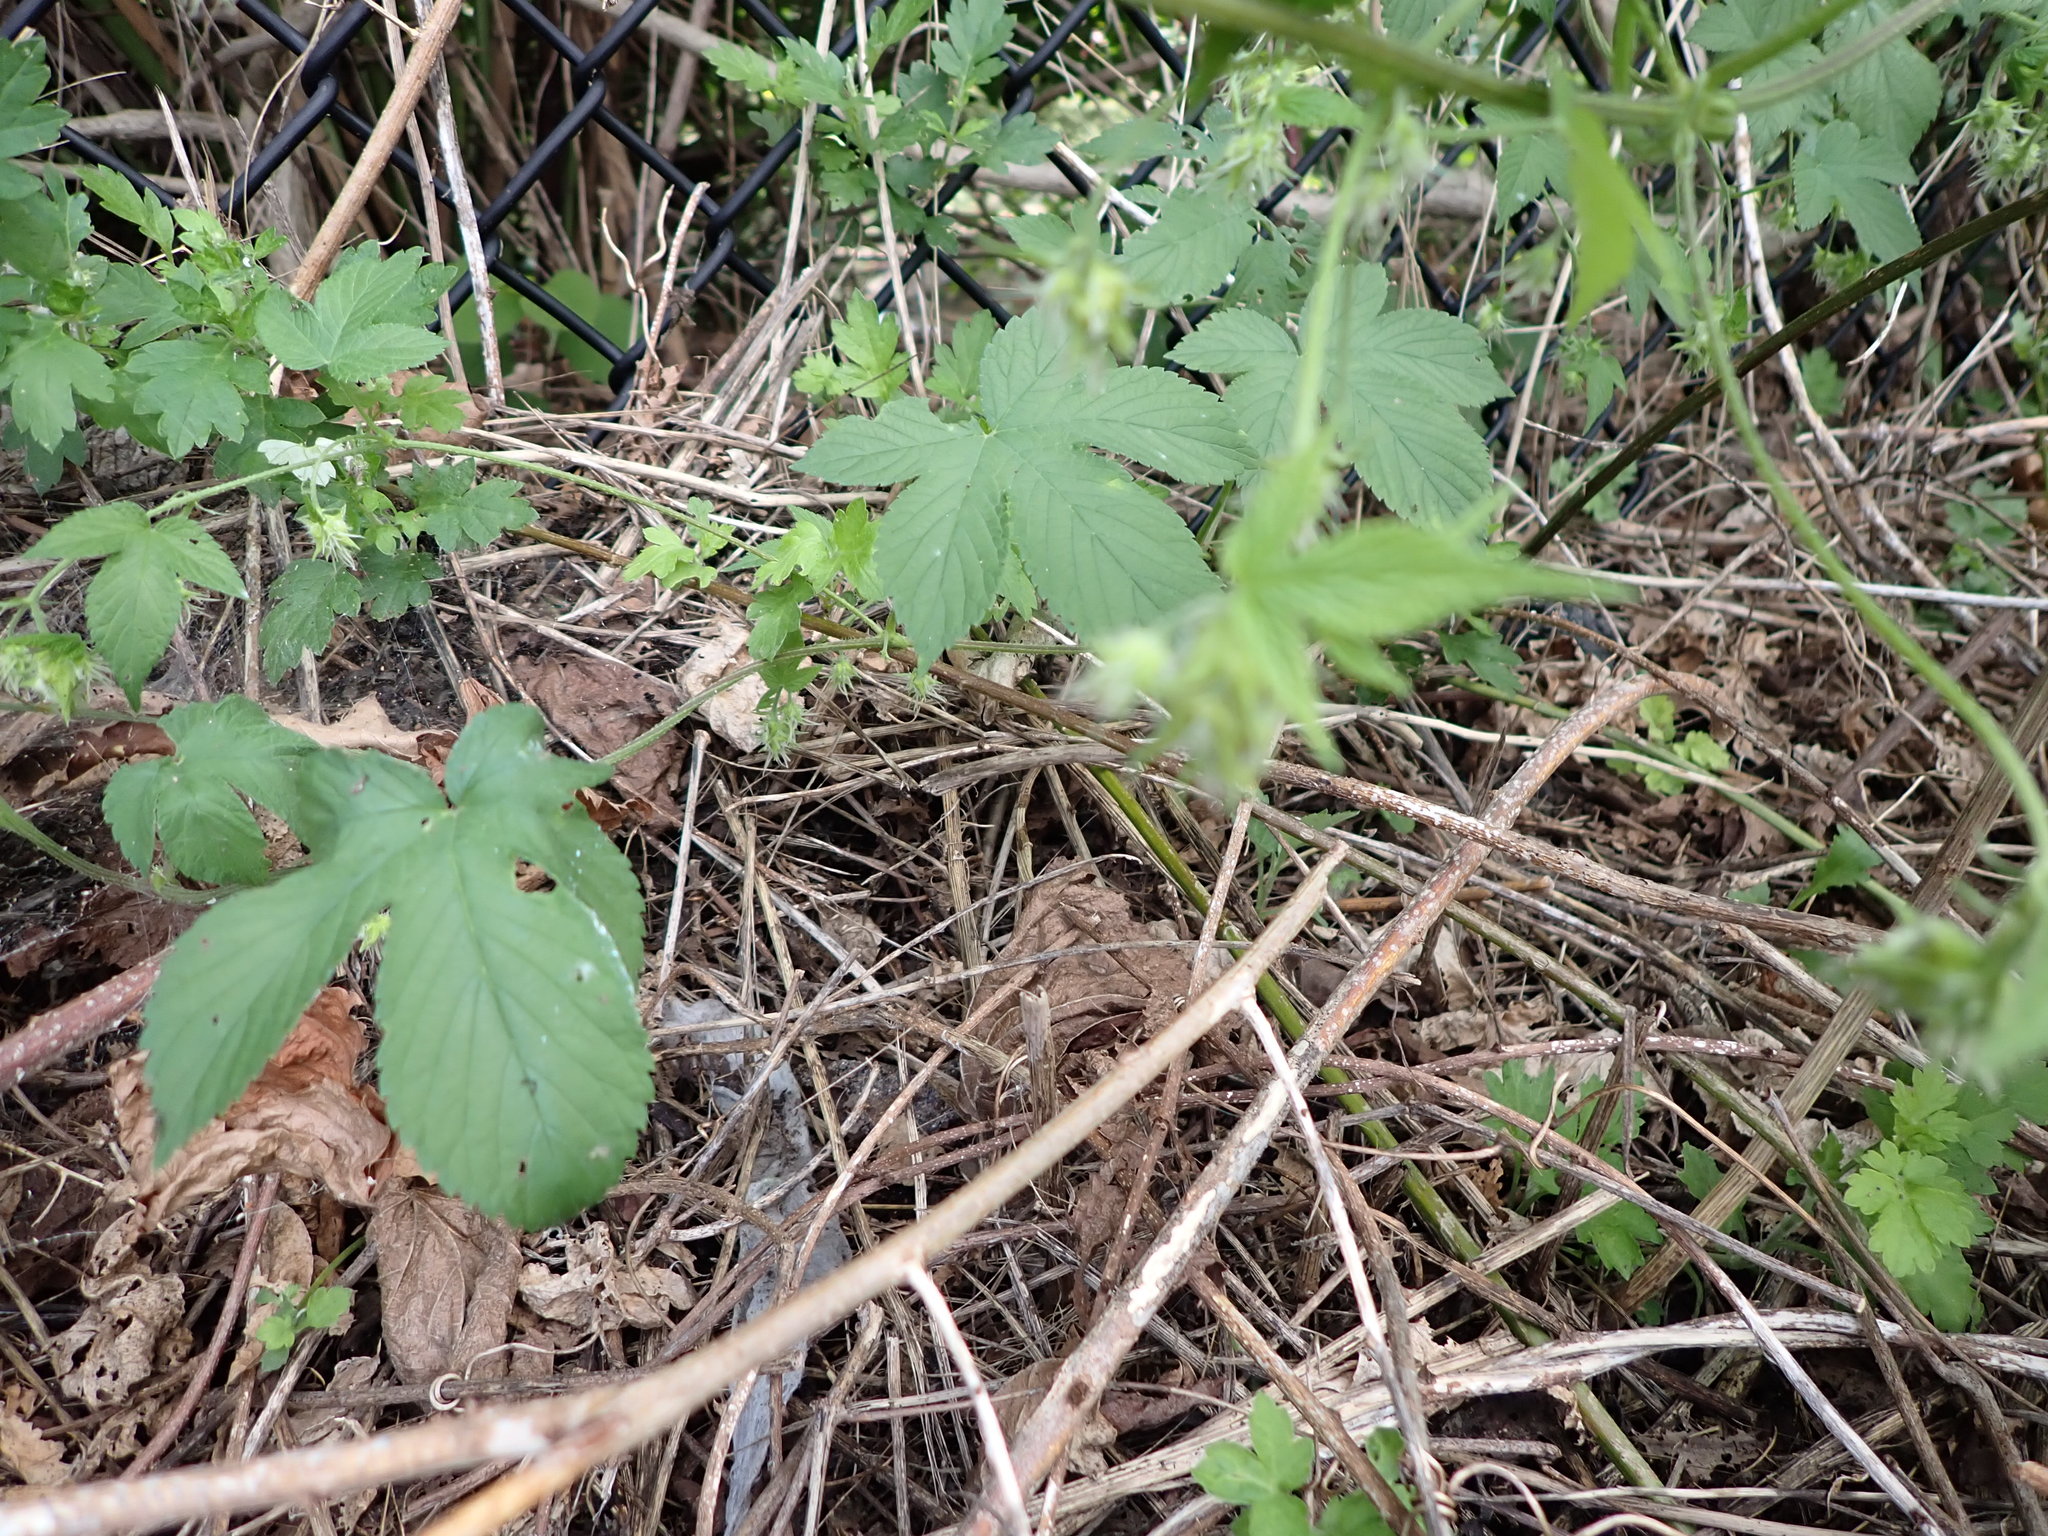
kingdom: Plantae
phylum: Tracheophyta
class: Magnoliopsida
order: Rosales
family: Cannabaceae
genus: Humulus
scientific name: Humulus scandens
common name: Japanese hop
